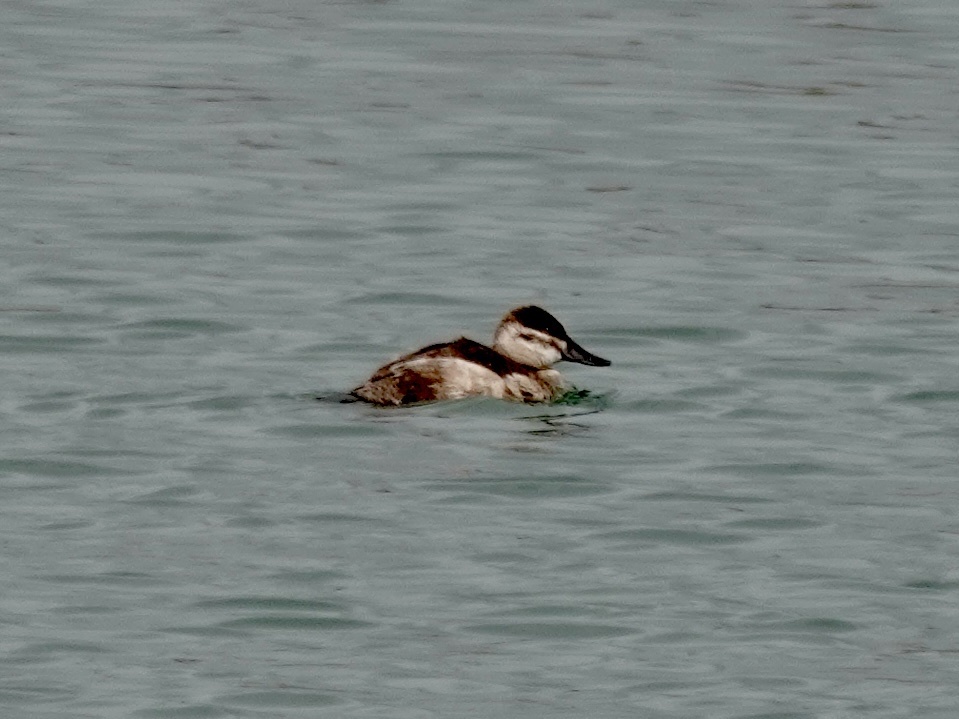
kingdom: Animalia
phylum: Chordata
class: Aves
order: Anseriformes
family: Anatidae
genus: Oxyura
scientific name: Oxyura jamaicensis
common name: Ruddy duck
